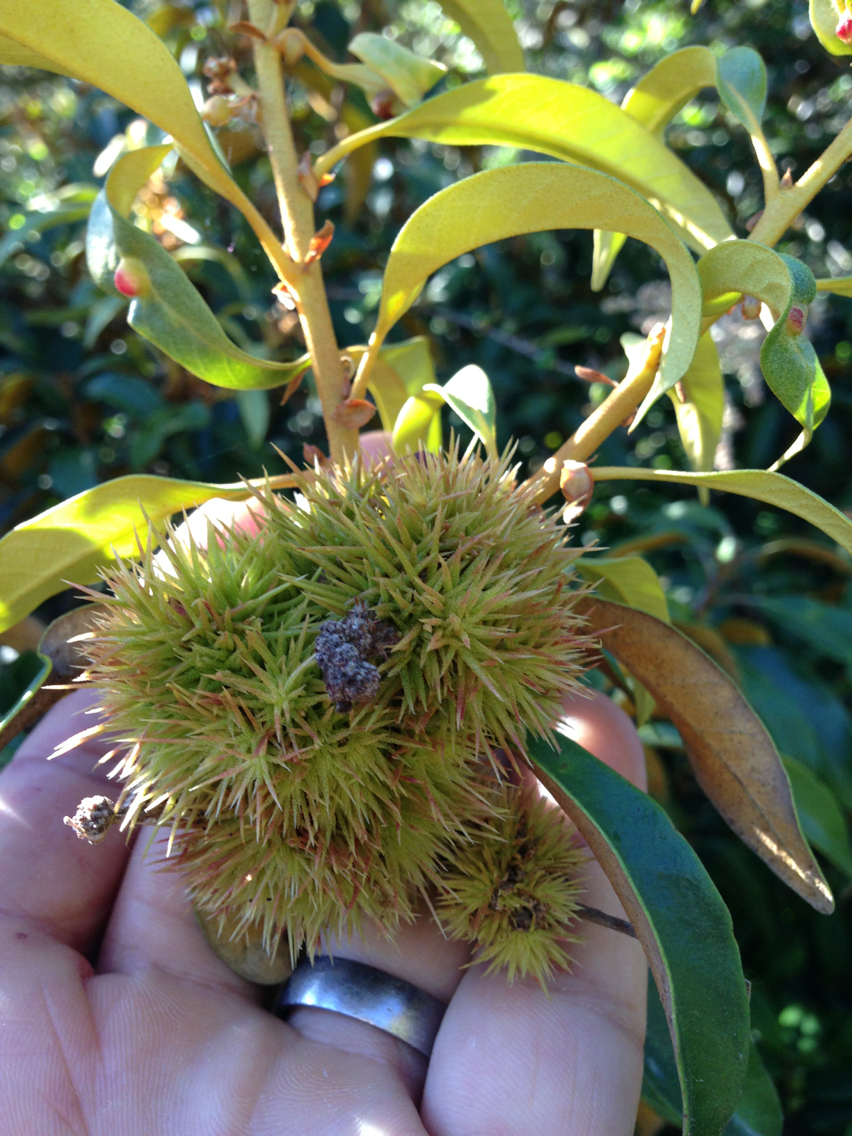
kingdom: Plantae
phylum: Tracheophyta
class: Magnoliopsida
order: Fagales
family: Fagaceae
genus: Chrysolepis
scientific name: Chrysolepis chrysophylla
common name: Giant chinquapin
